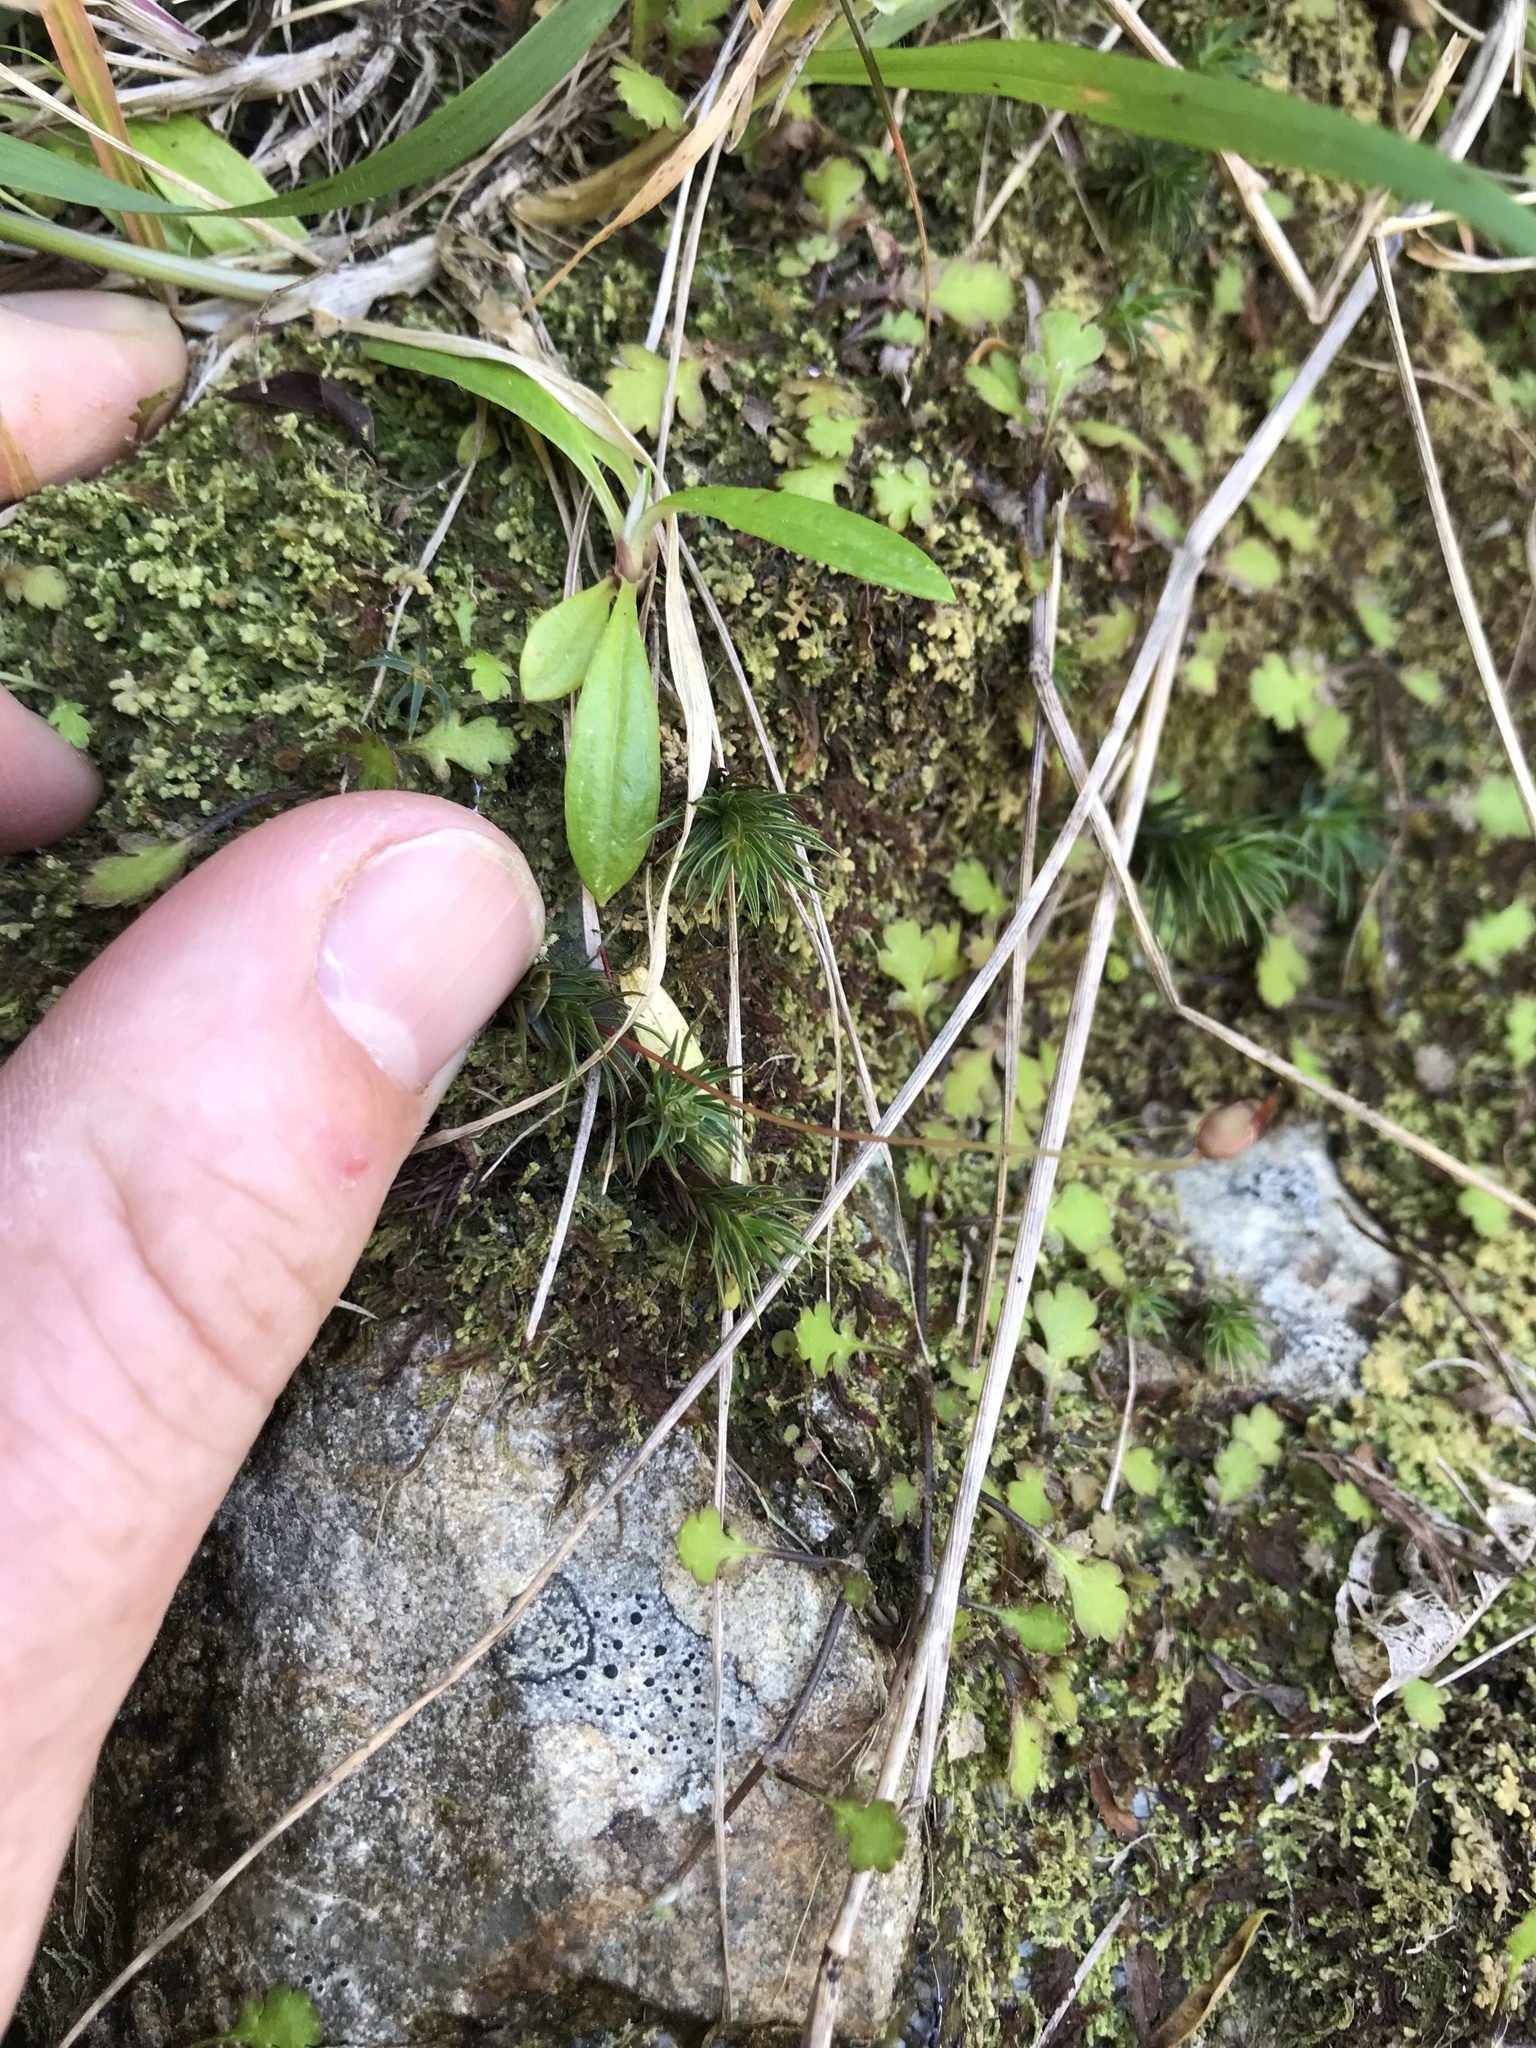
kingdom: Plantae
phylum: Bryophyta
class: Polytrichopsida
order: Polytrichales
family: Polytrichaceae
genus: Polytrichadelphus
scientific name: Polytrichadelphus magellanicus
